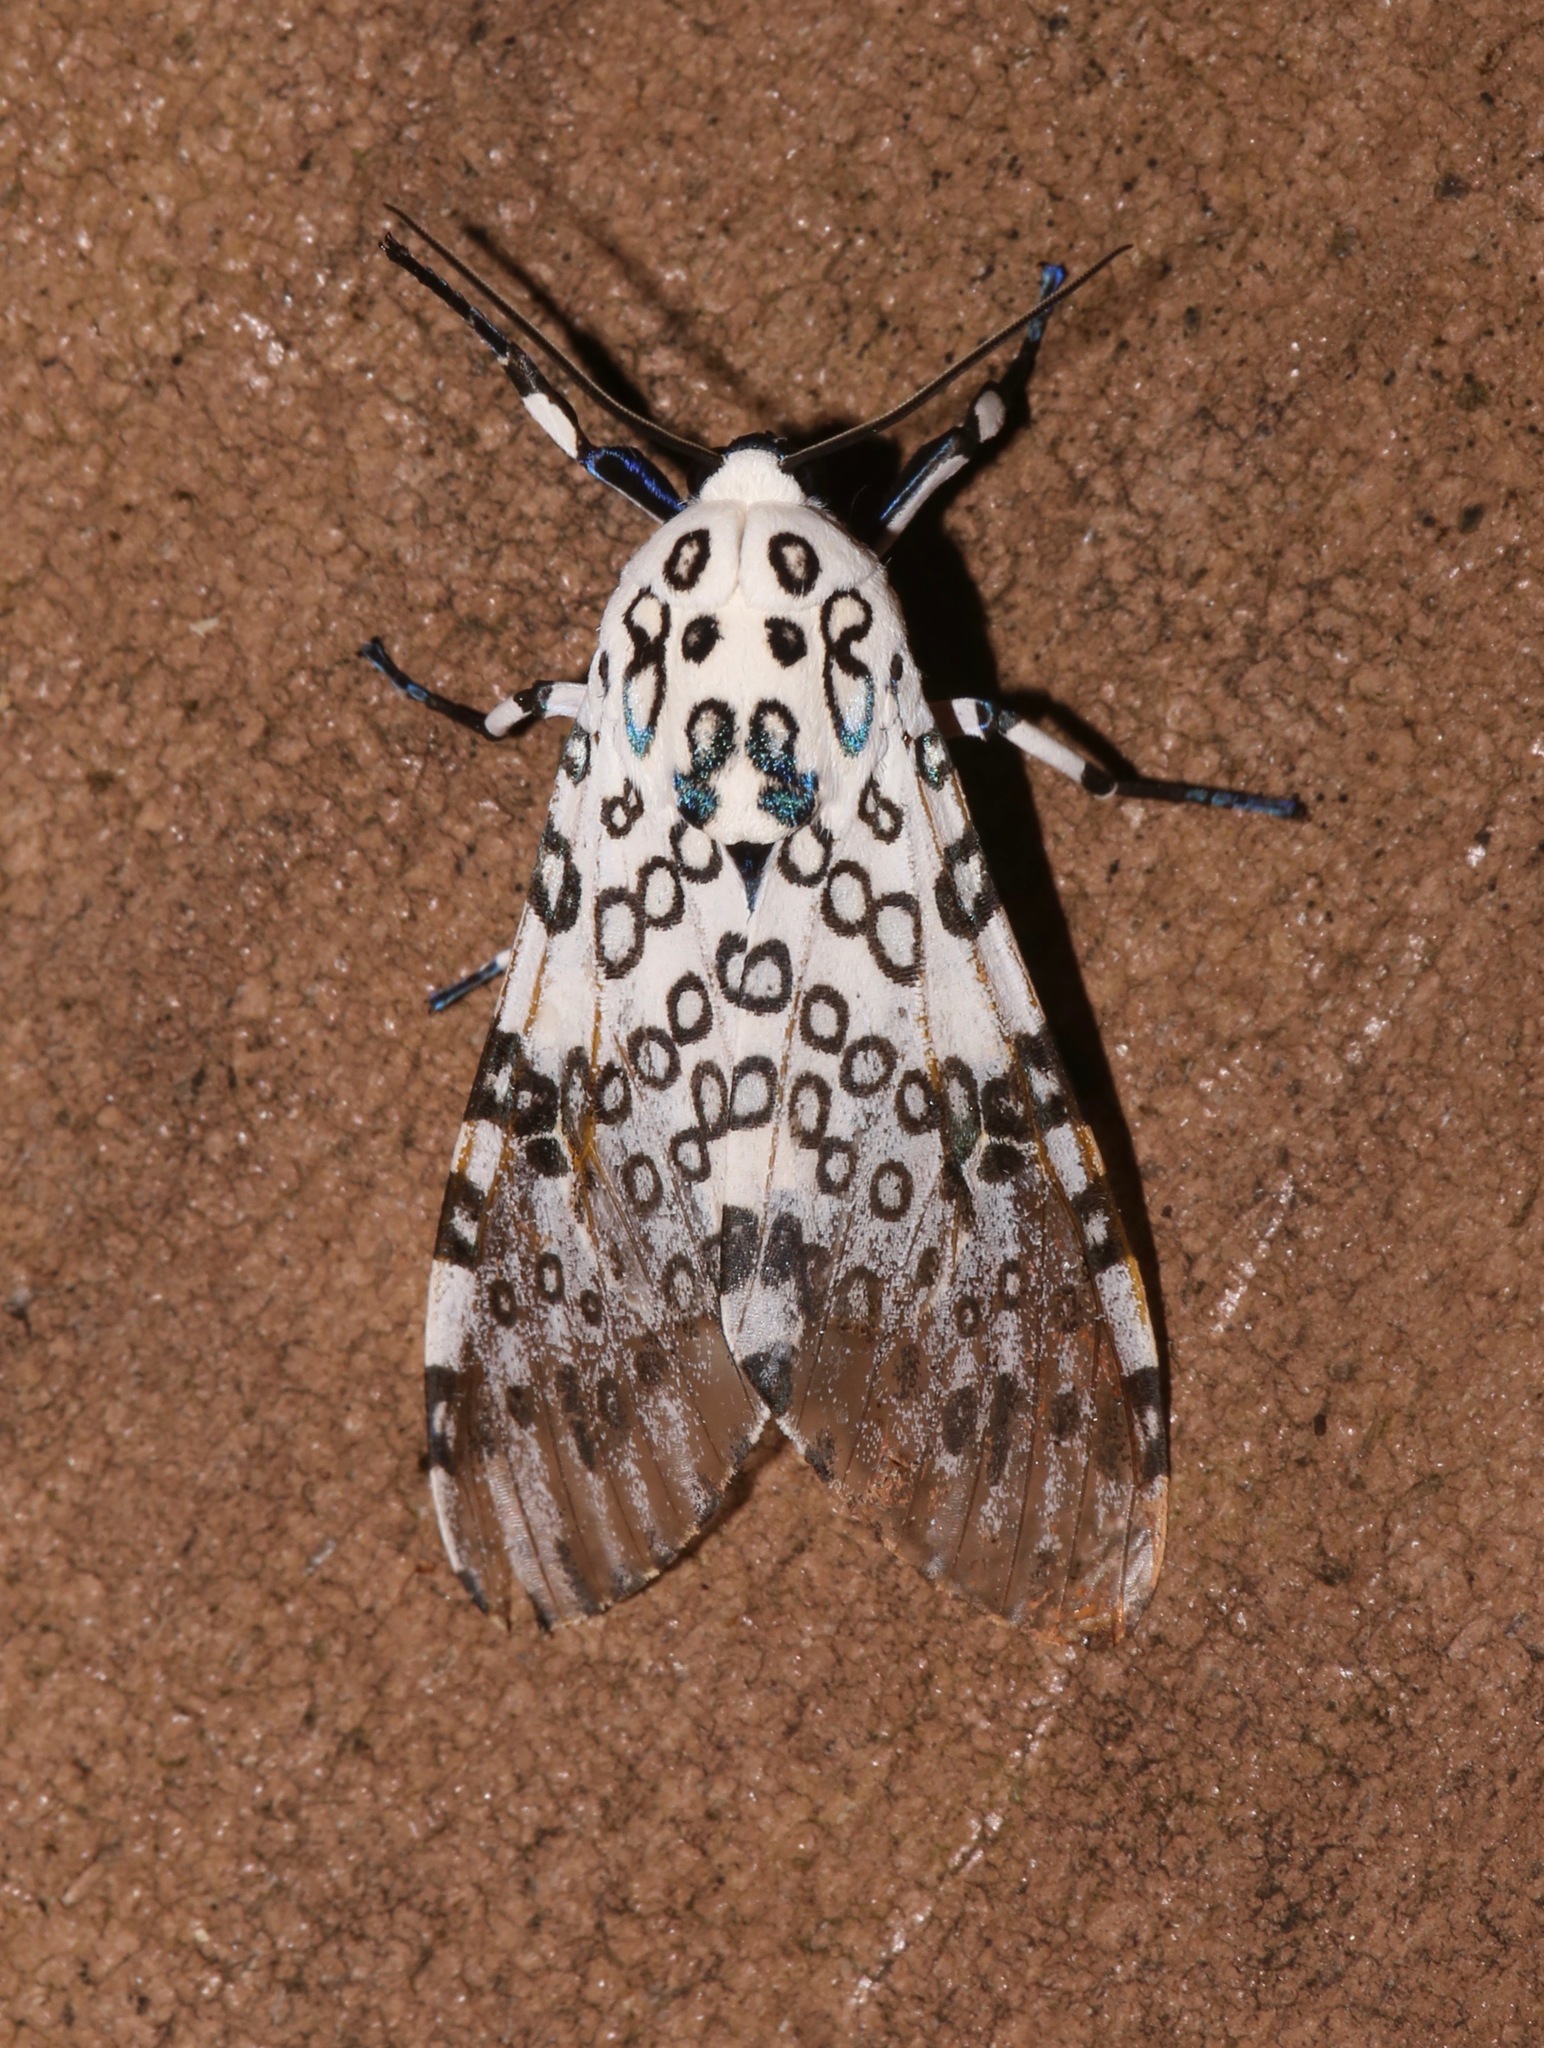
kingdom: Animalia
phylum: Arthropoda
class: Insecta
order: Lepidoptera
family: Erebidae
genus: Hypercompe
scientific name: Hypercompe scribonia
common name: Giant leopard moth
